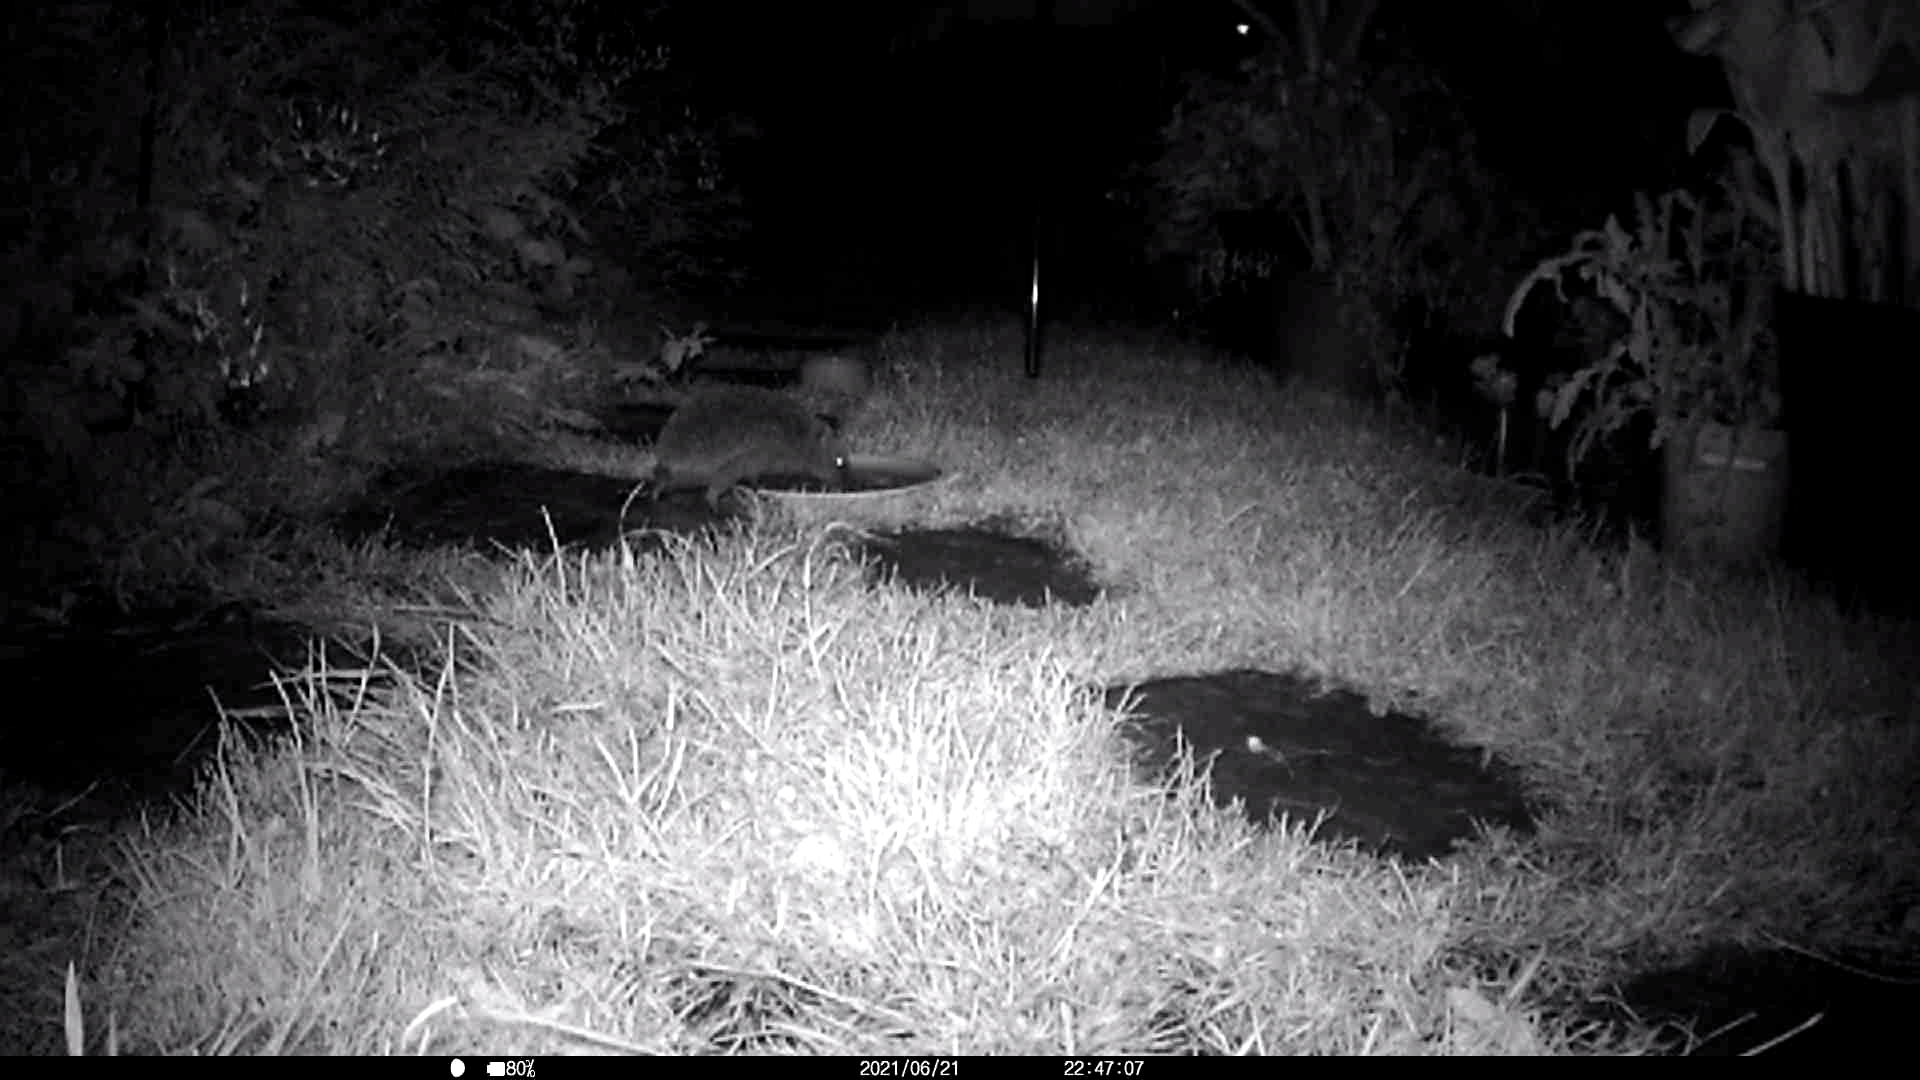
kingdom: Animalia
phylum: Chordata
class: Mammalia
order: Erinaceomorpha
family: Erinaceidae
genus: Erinaceus
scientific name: Erinaceus europaeus
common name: West european hedgehog
